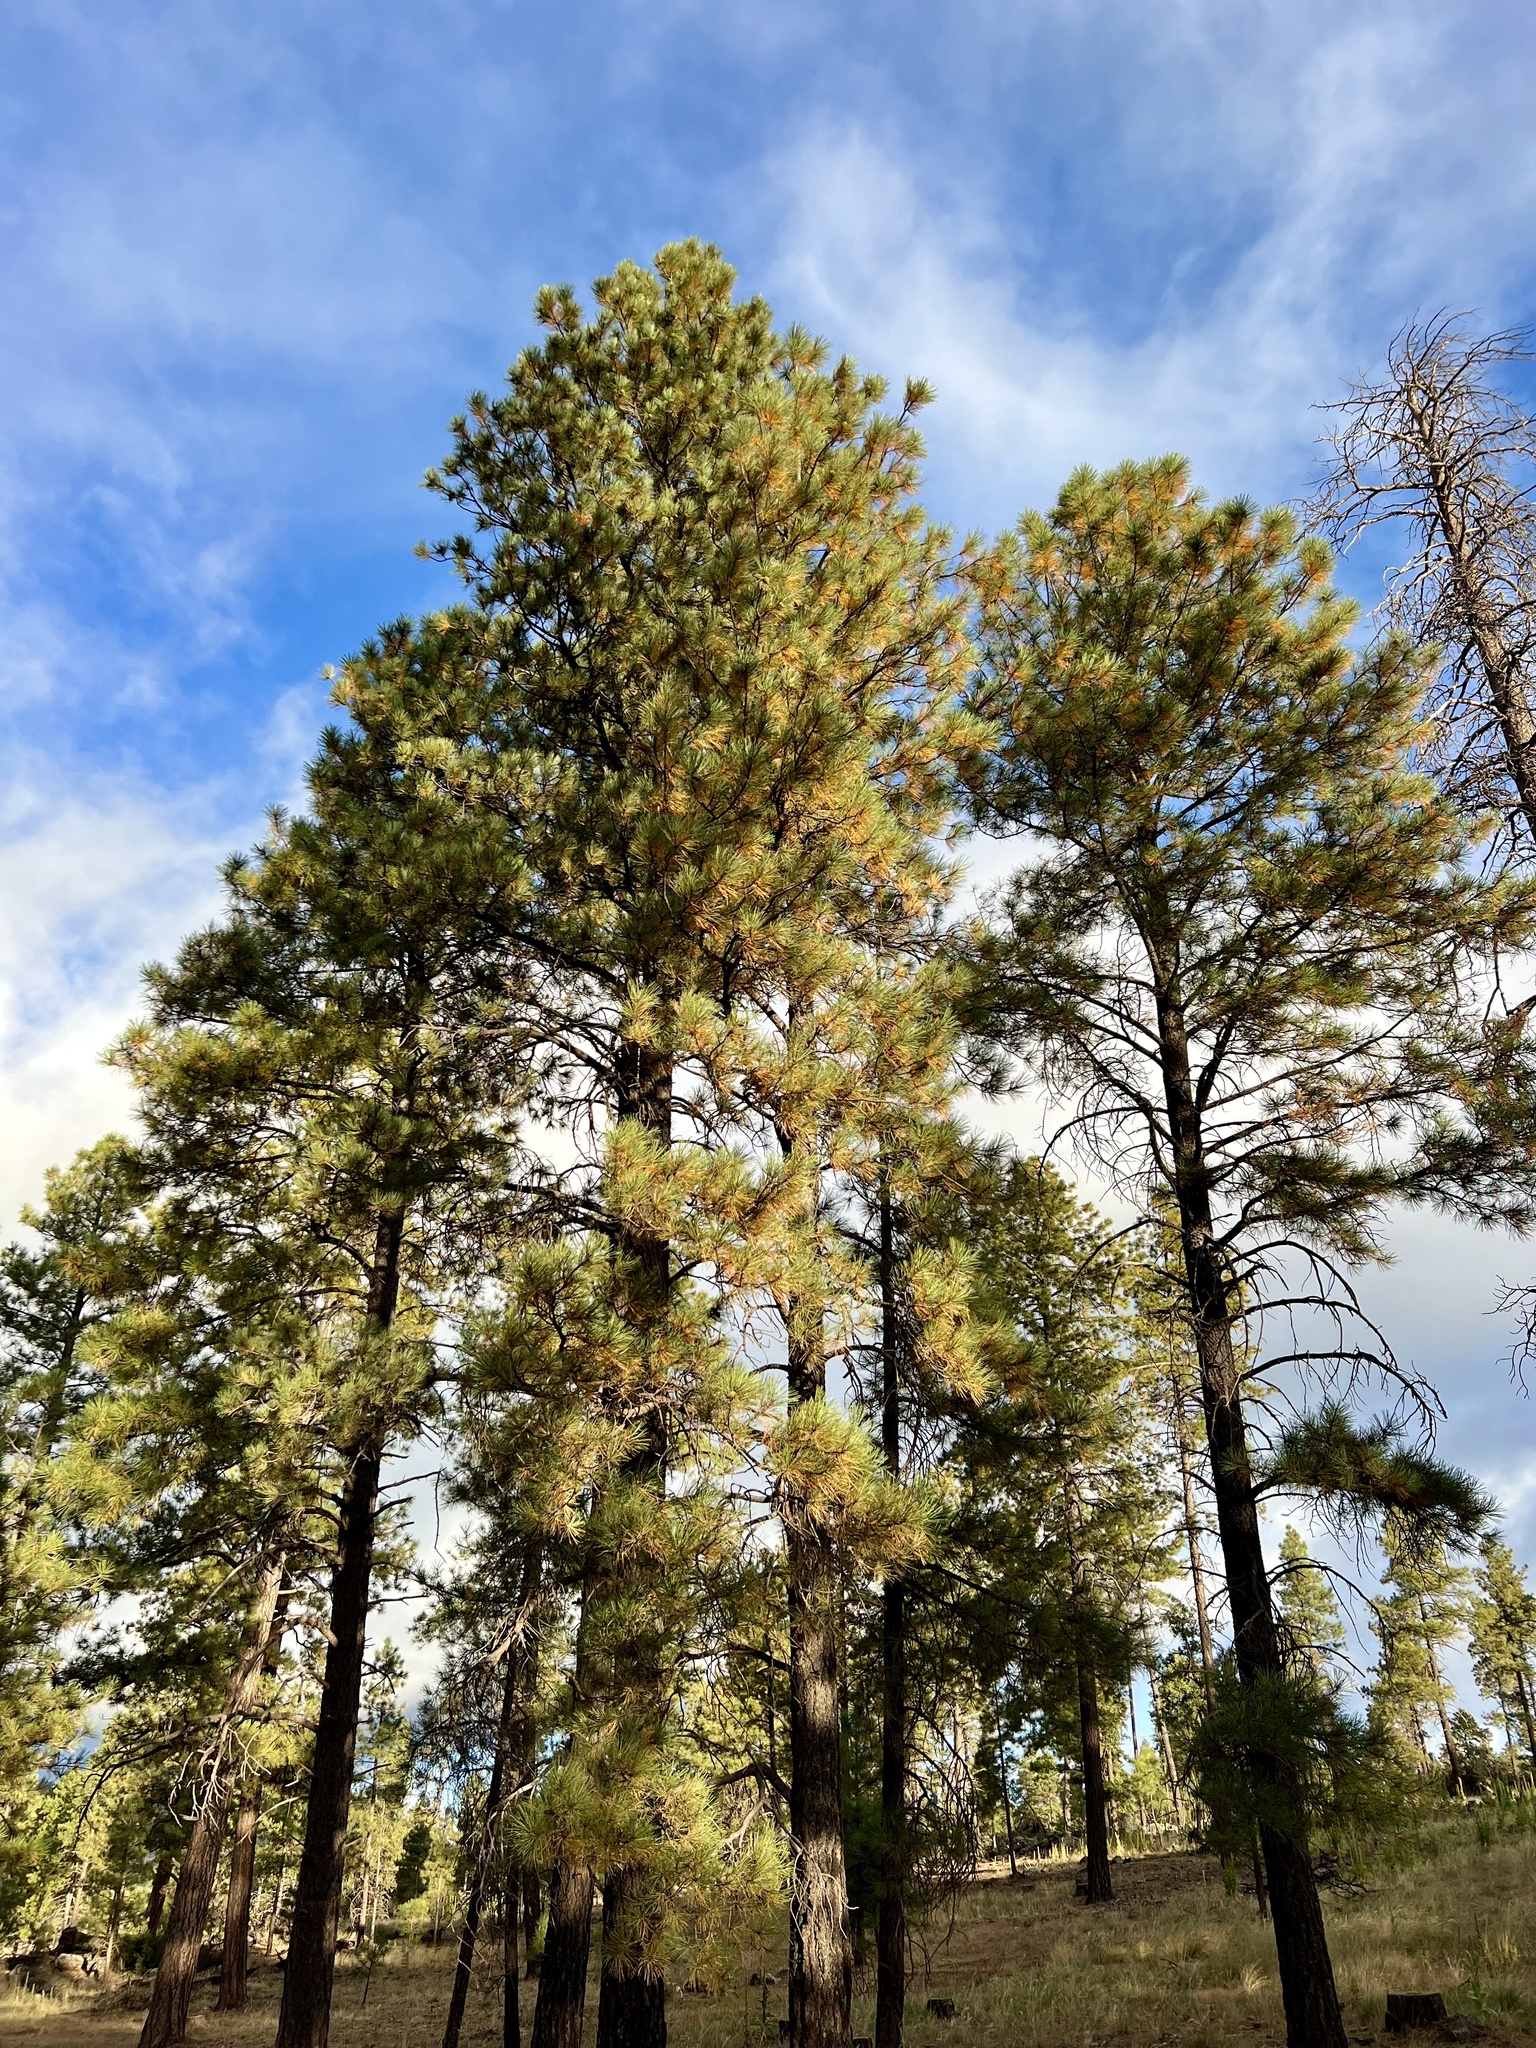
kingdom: Plantae
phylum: Tracheophyta
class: Pinopsida
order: Pinales
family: Pinaceae
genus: Pinus
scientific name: Pinus ponderosa
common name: Western yellow-pine
